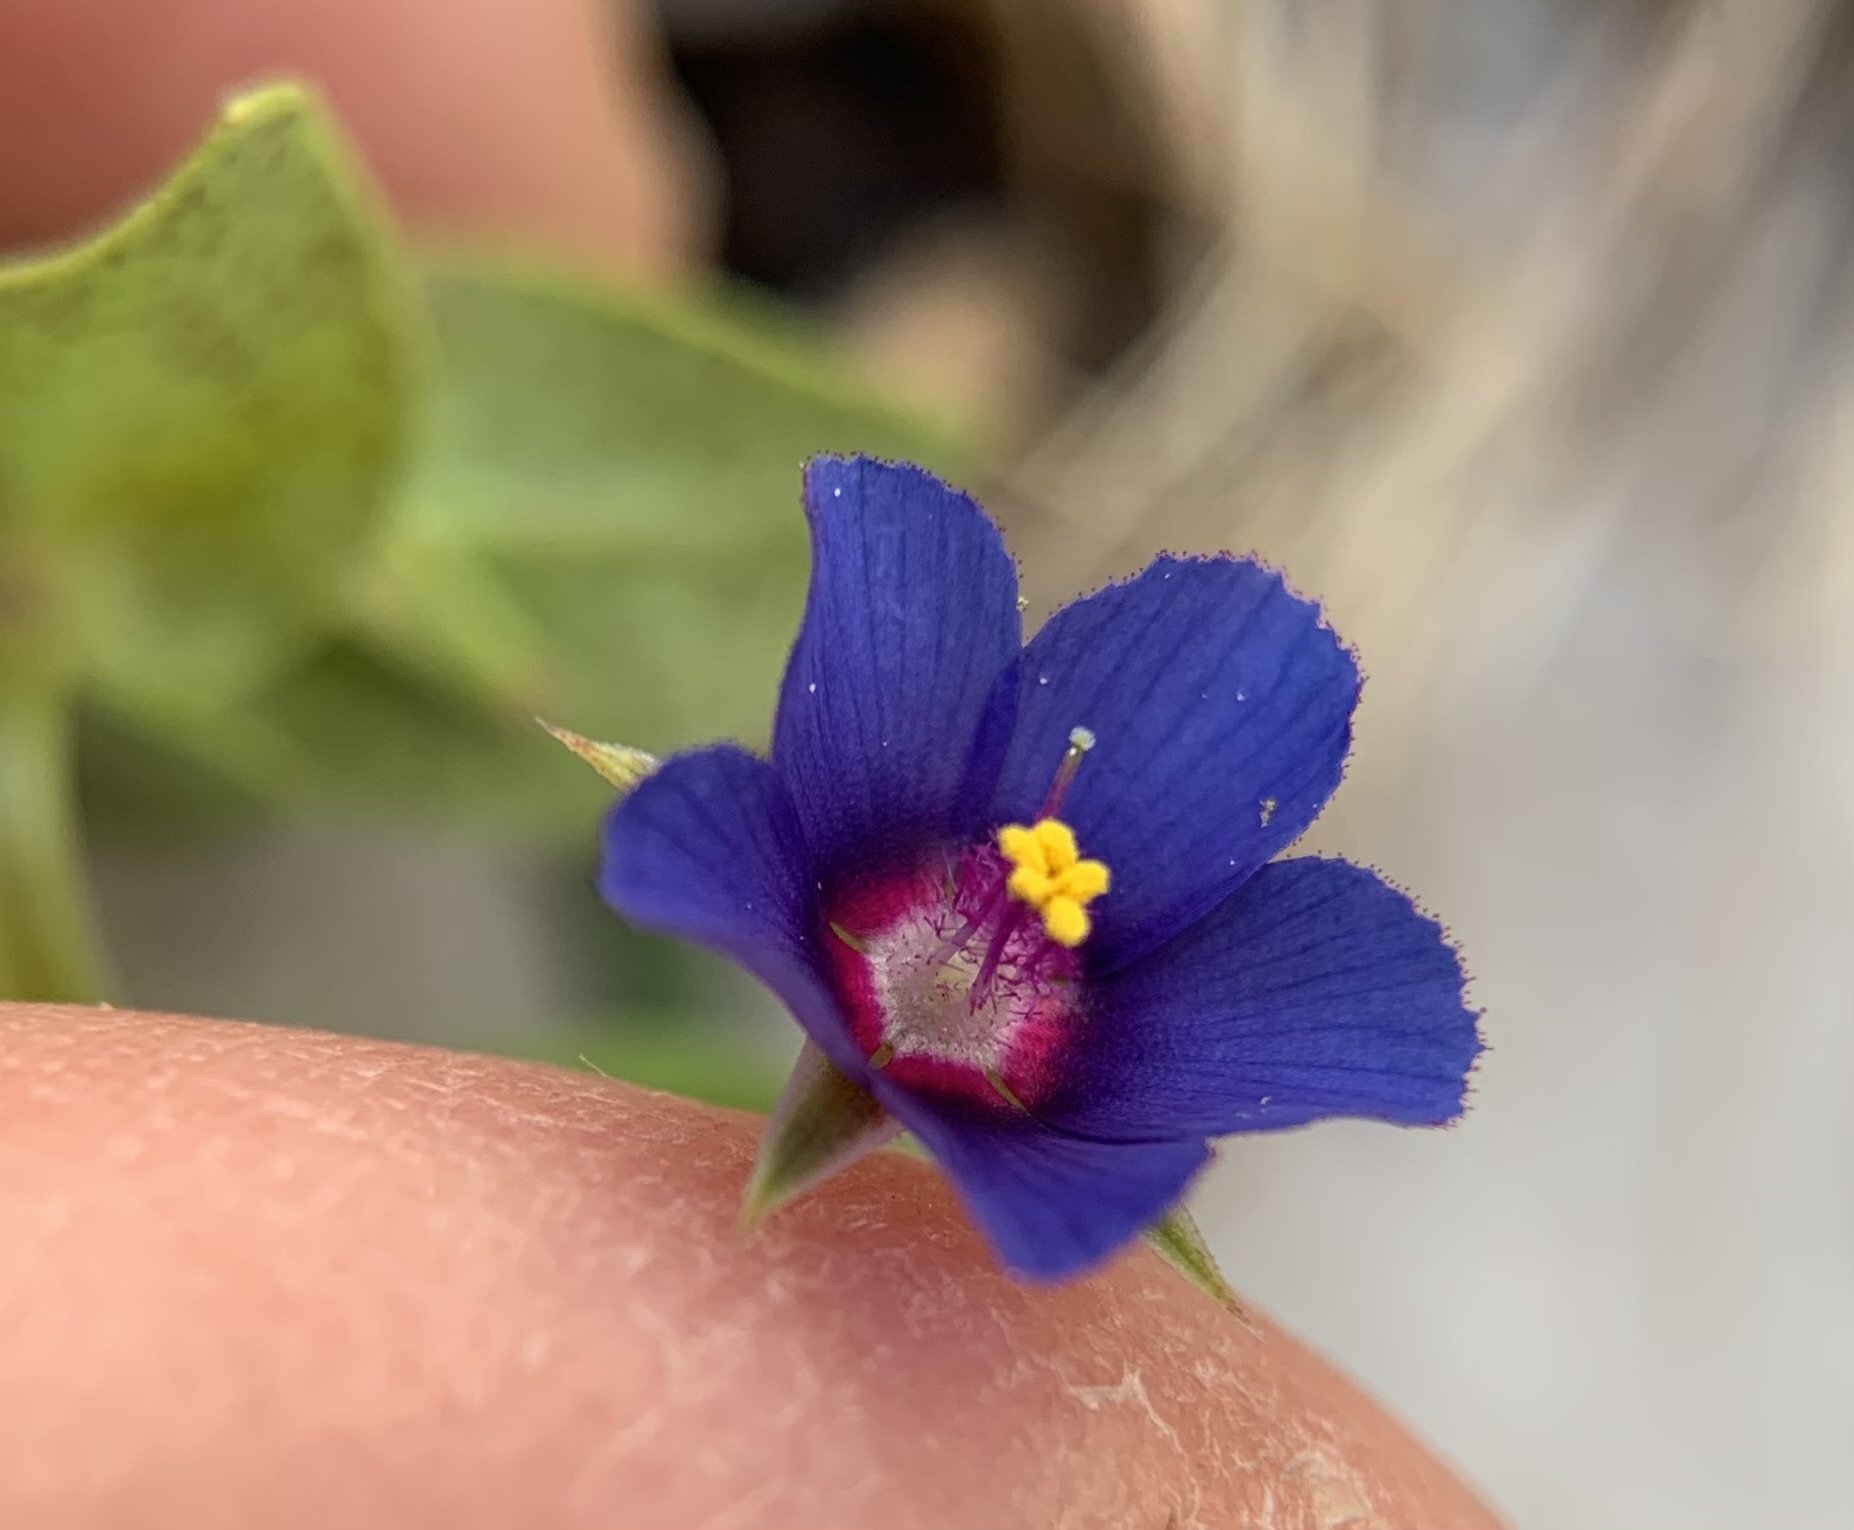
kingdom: Plantae
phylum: Tracheophyta
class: Magnoliopsida
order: Ericales
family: Primulaceae
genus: Lysimachia
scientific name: Lysimachia loeflingii
